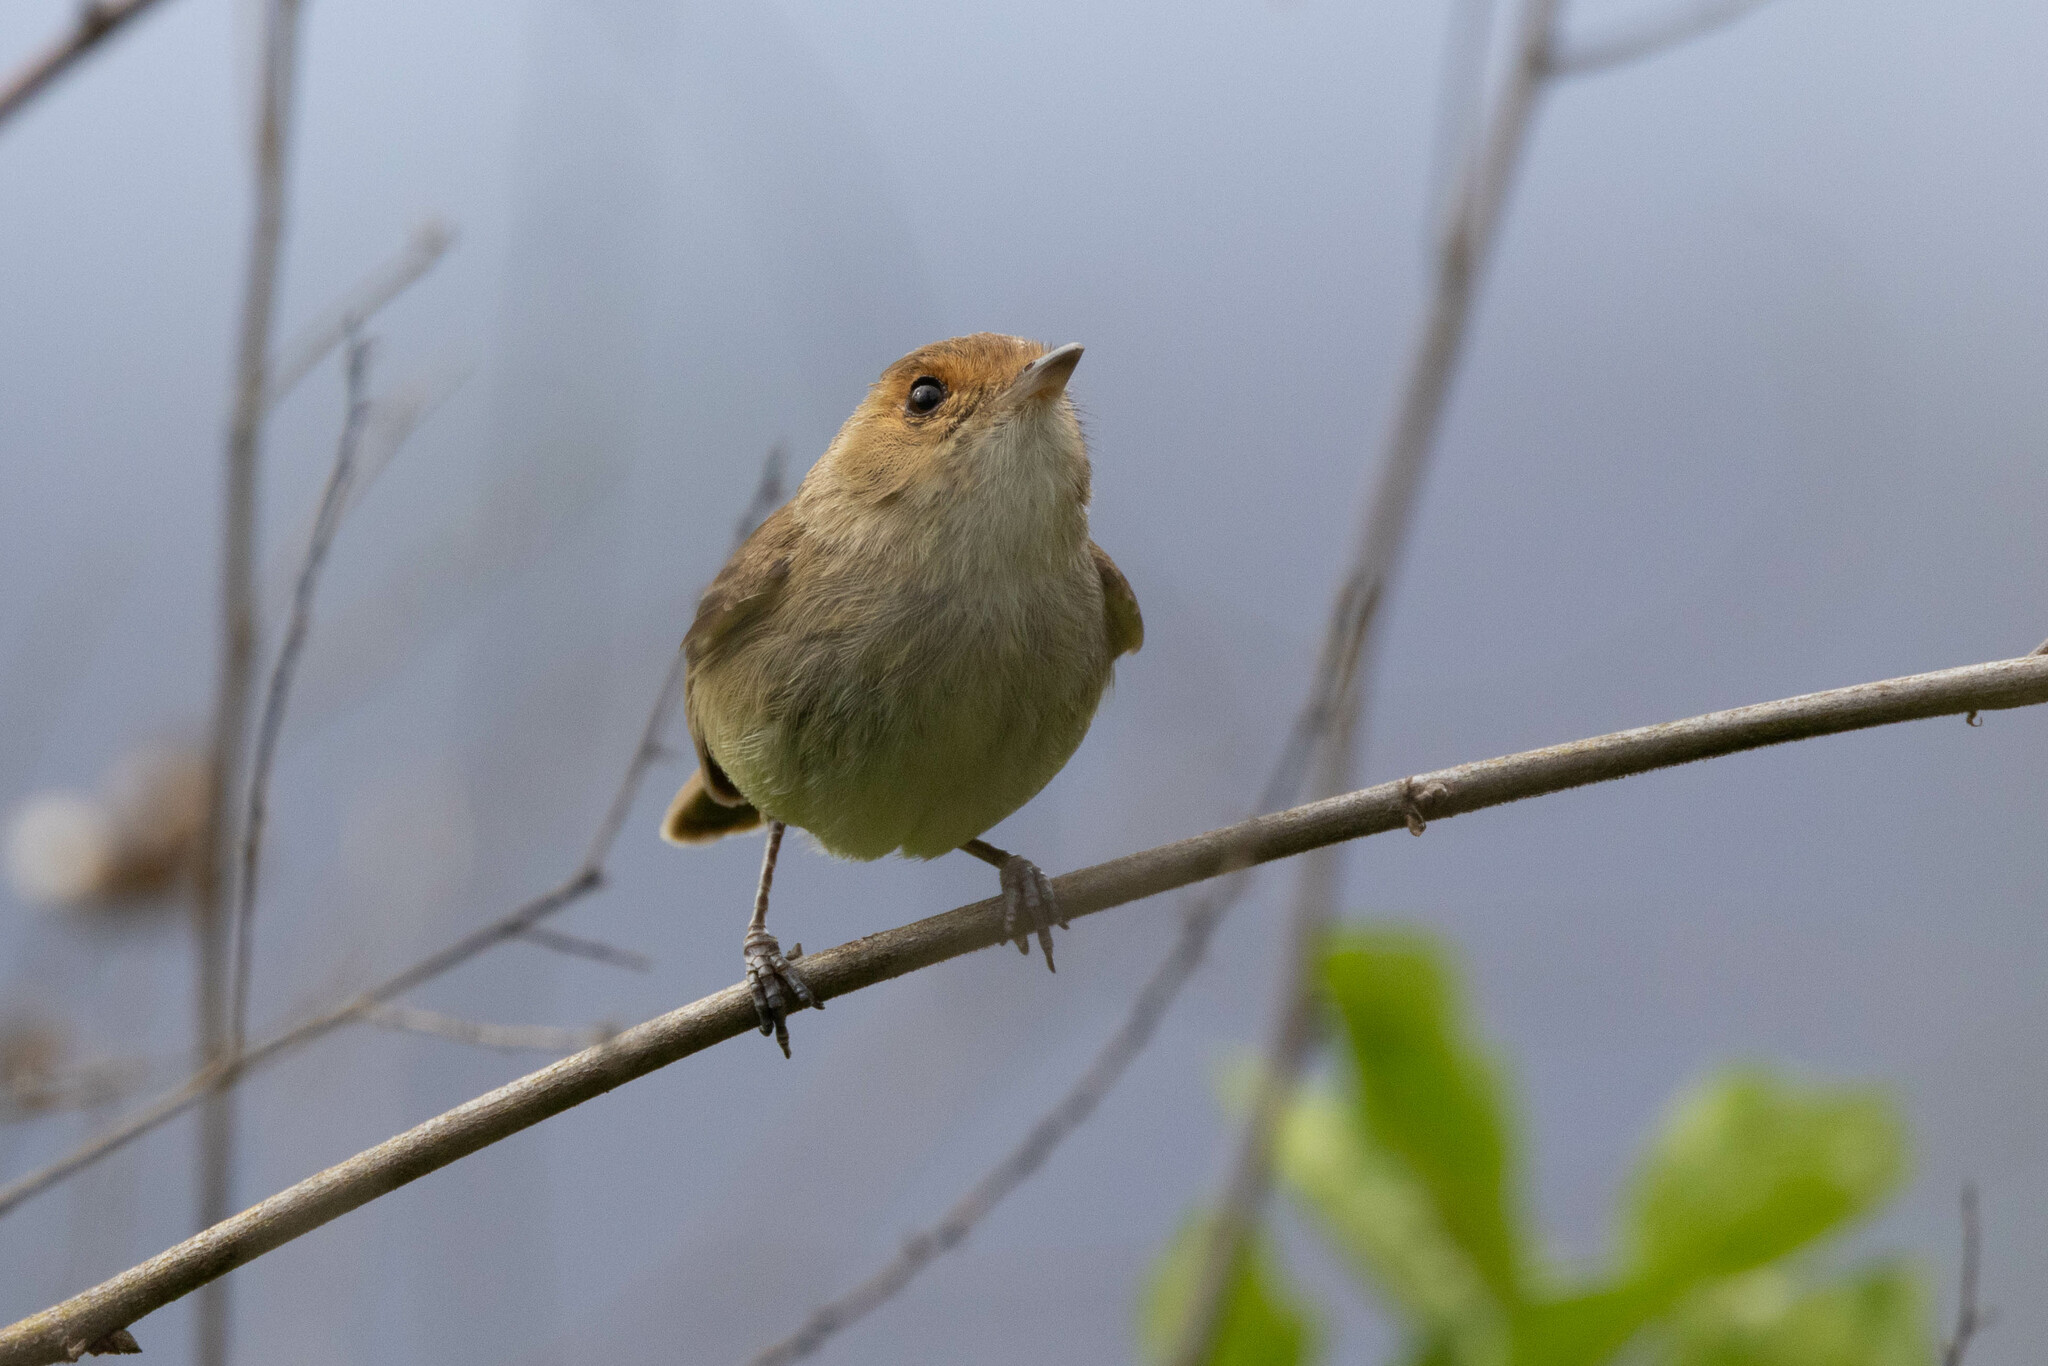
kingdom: Animalia
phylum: Chordata
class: Aves
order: Passeriformes
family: Tyrannidae
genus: Euscarthmus
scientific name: Euscarthmus fulviceps
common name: Fulvous-faced scrub tyrant
